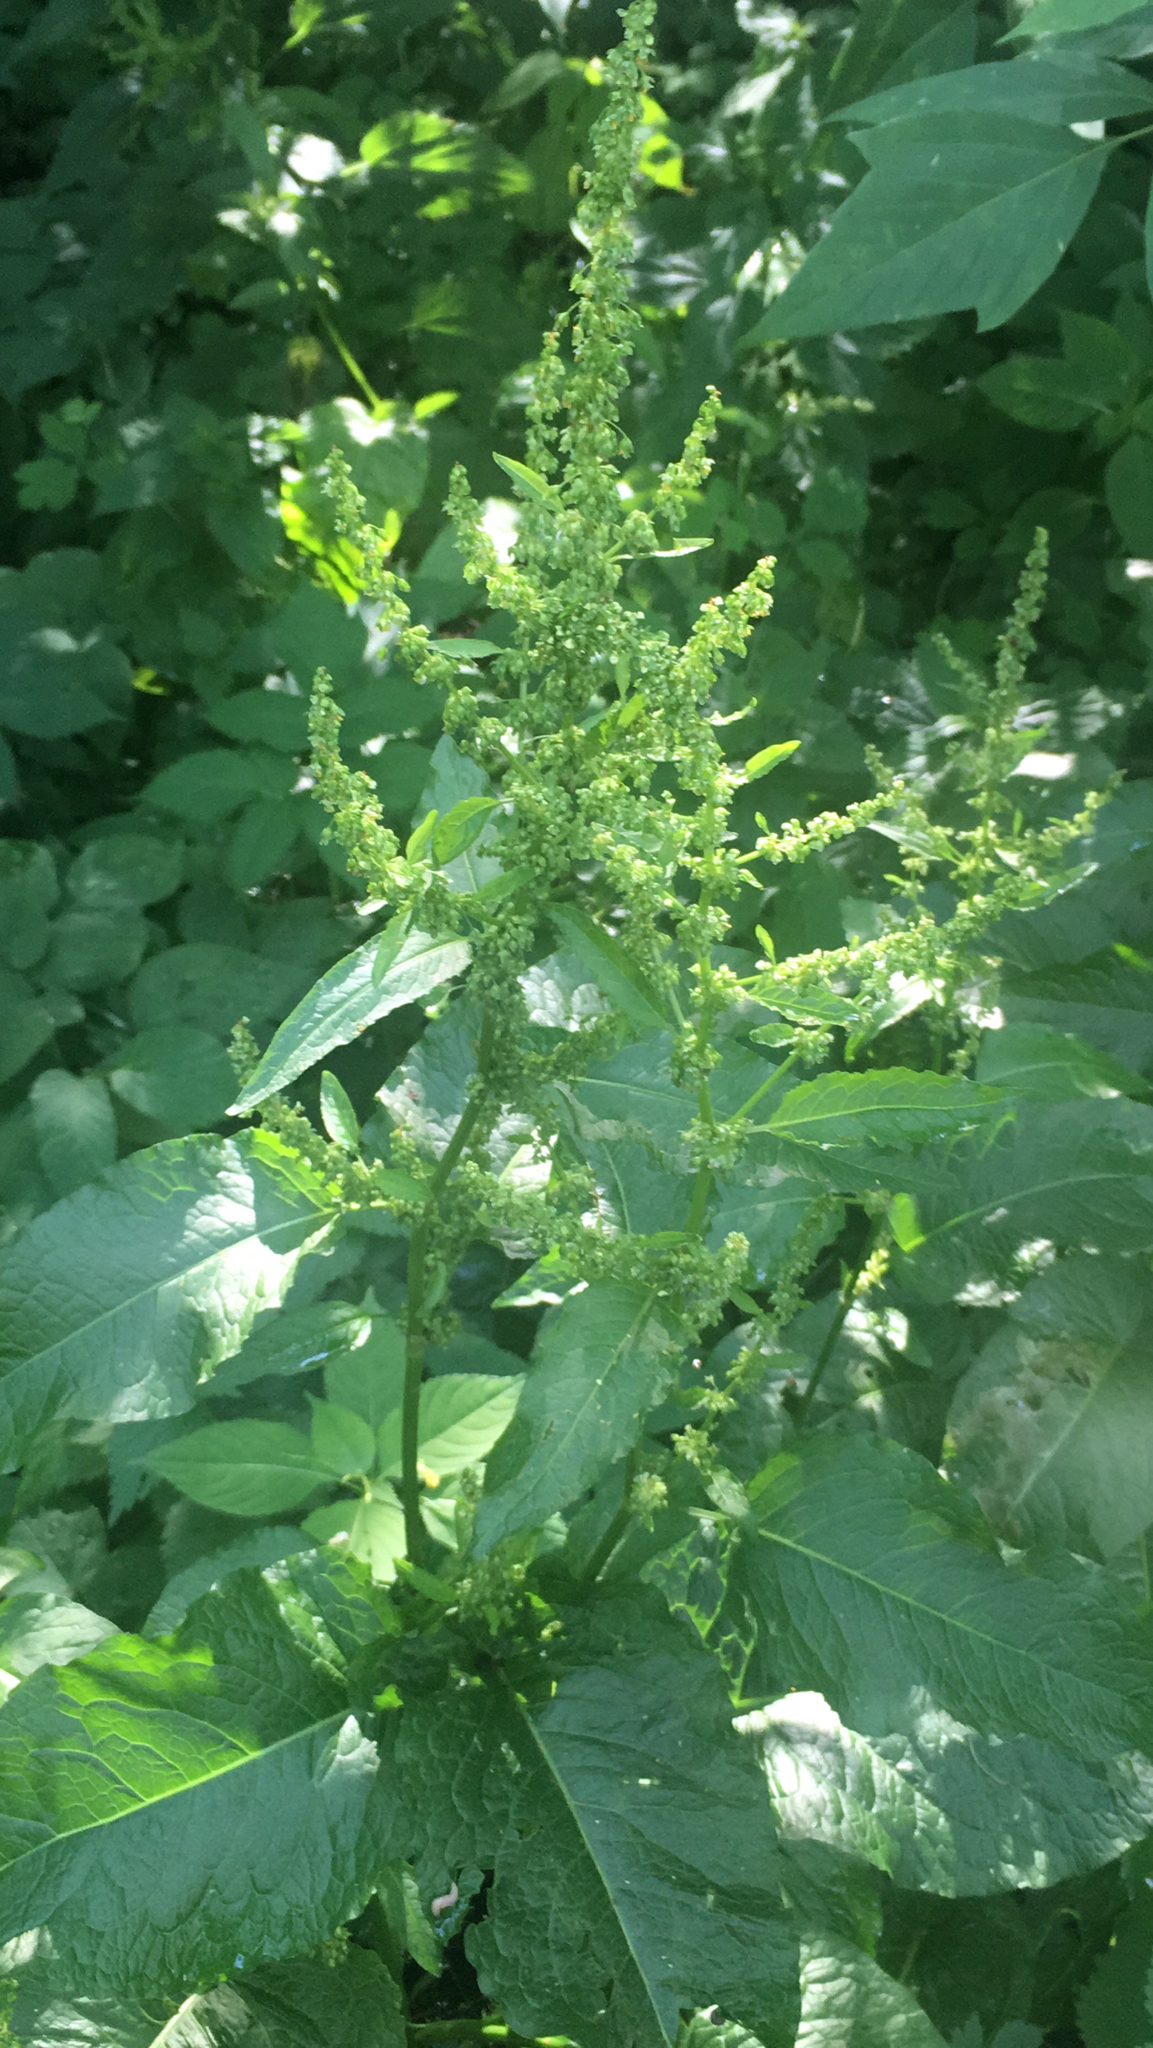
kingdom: Plantae
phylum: Tracheophyta
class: Magnoliopsida
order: Caryophyllales
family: Polygonaceae
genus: Rumex
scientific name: Rumex obtusifolius
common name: Bitter dock
